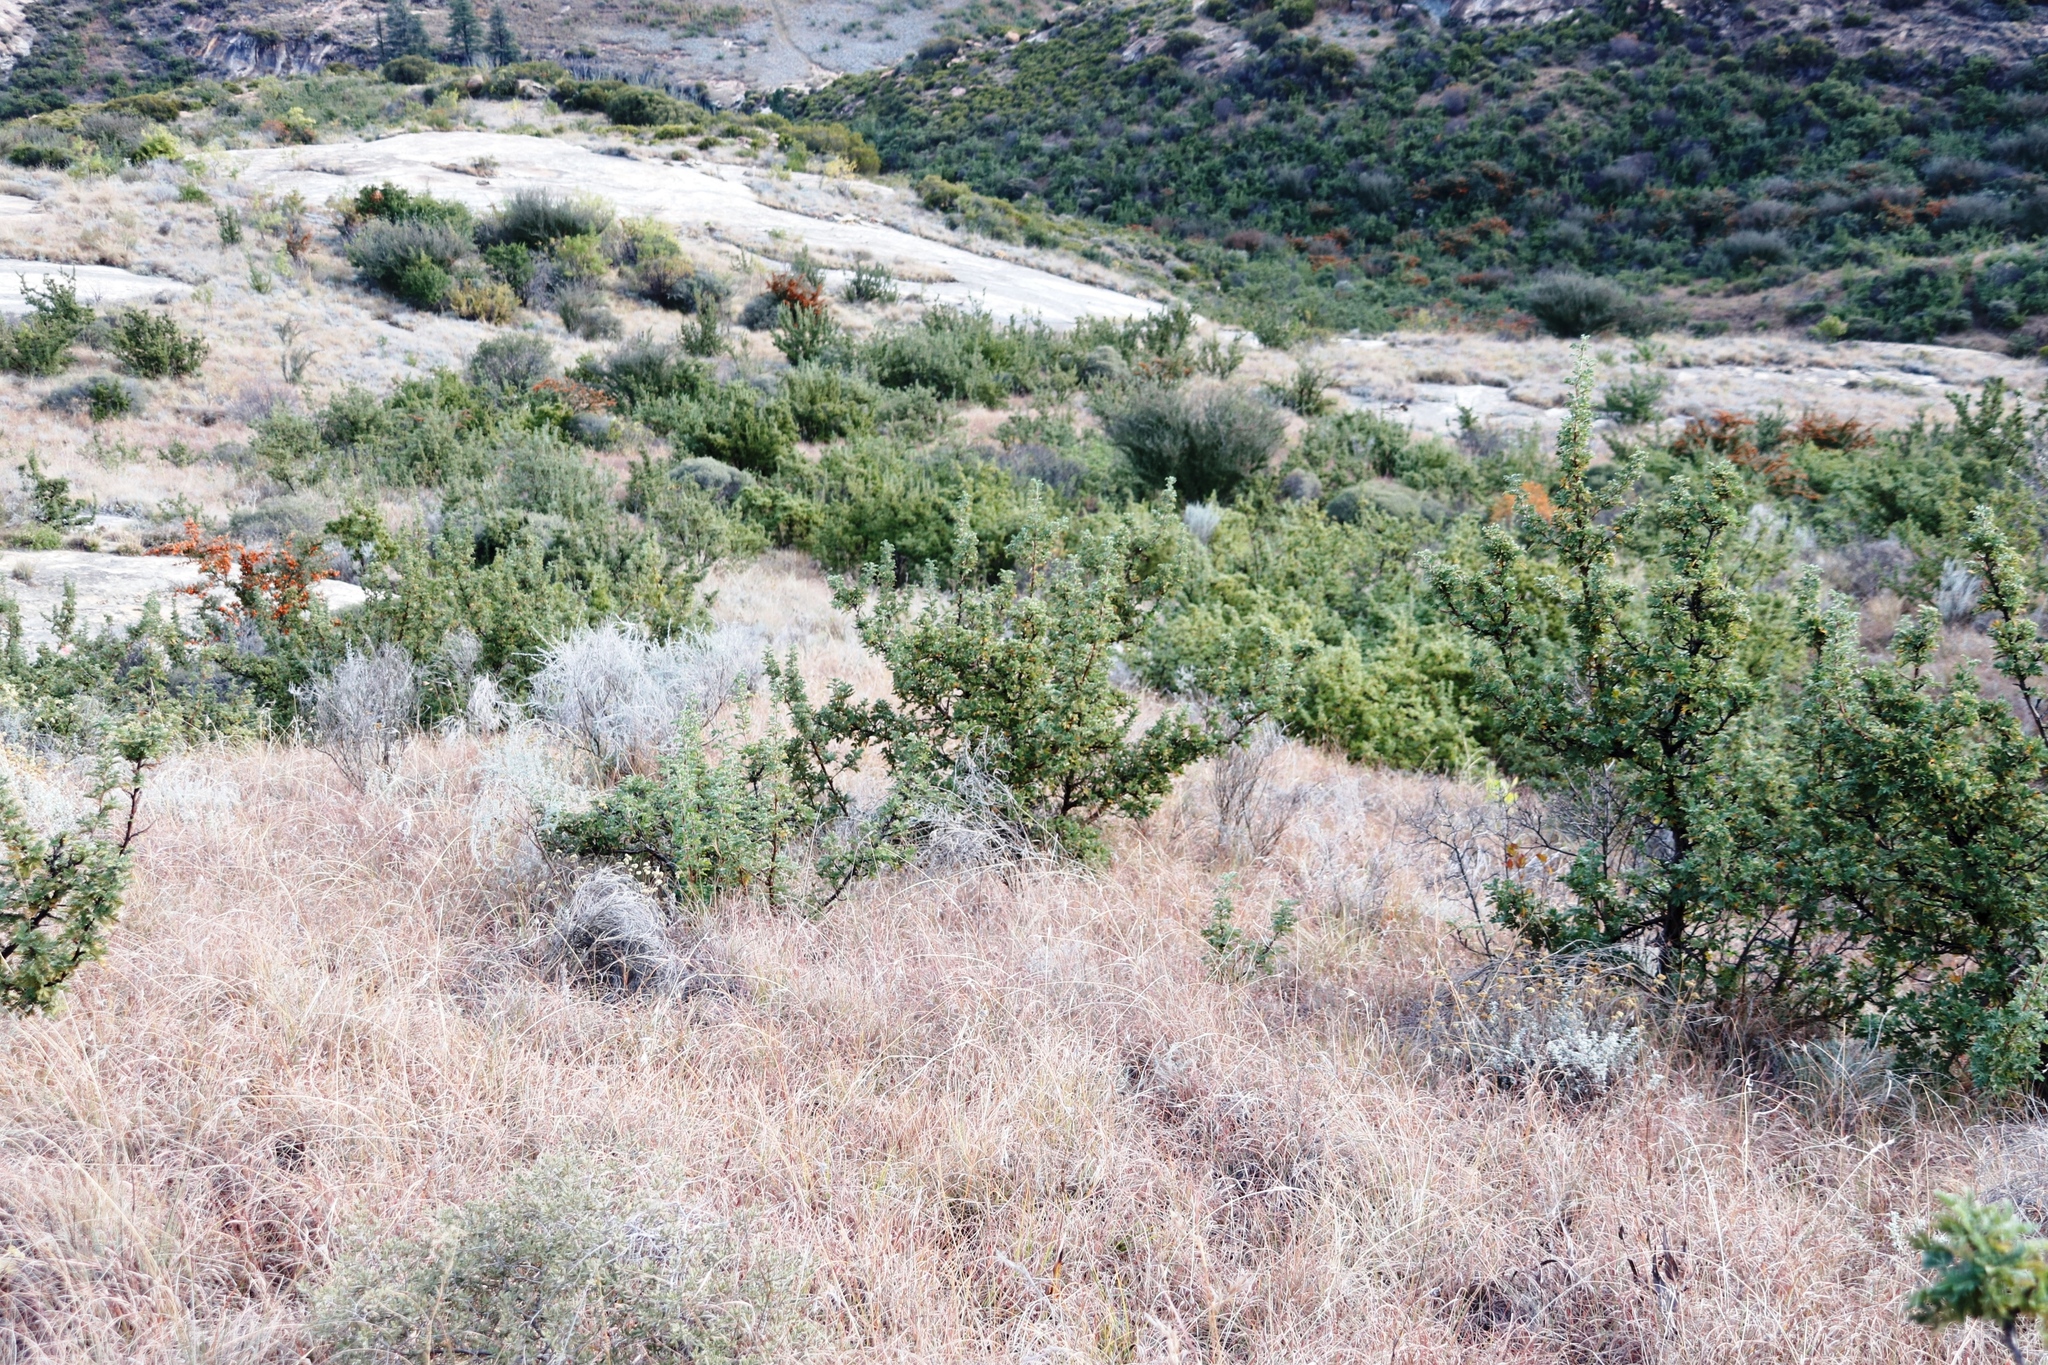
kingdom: Plantae
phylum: Tracheophyta
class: Magnoliopsida
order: Rosales
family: Rosaceae
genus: Leucosidea
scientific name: Leucosidea sericea
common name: Oldwood
